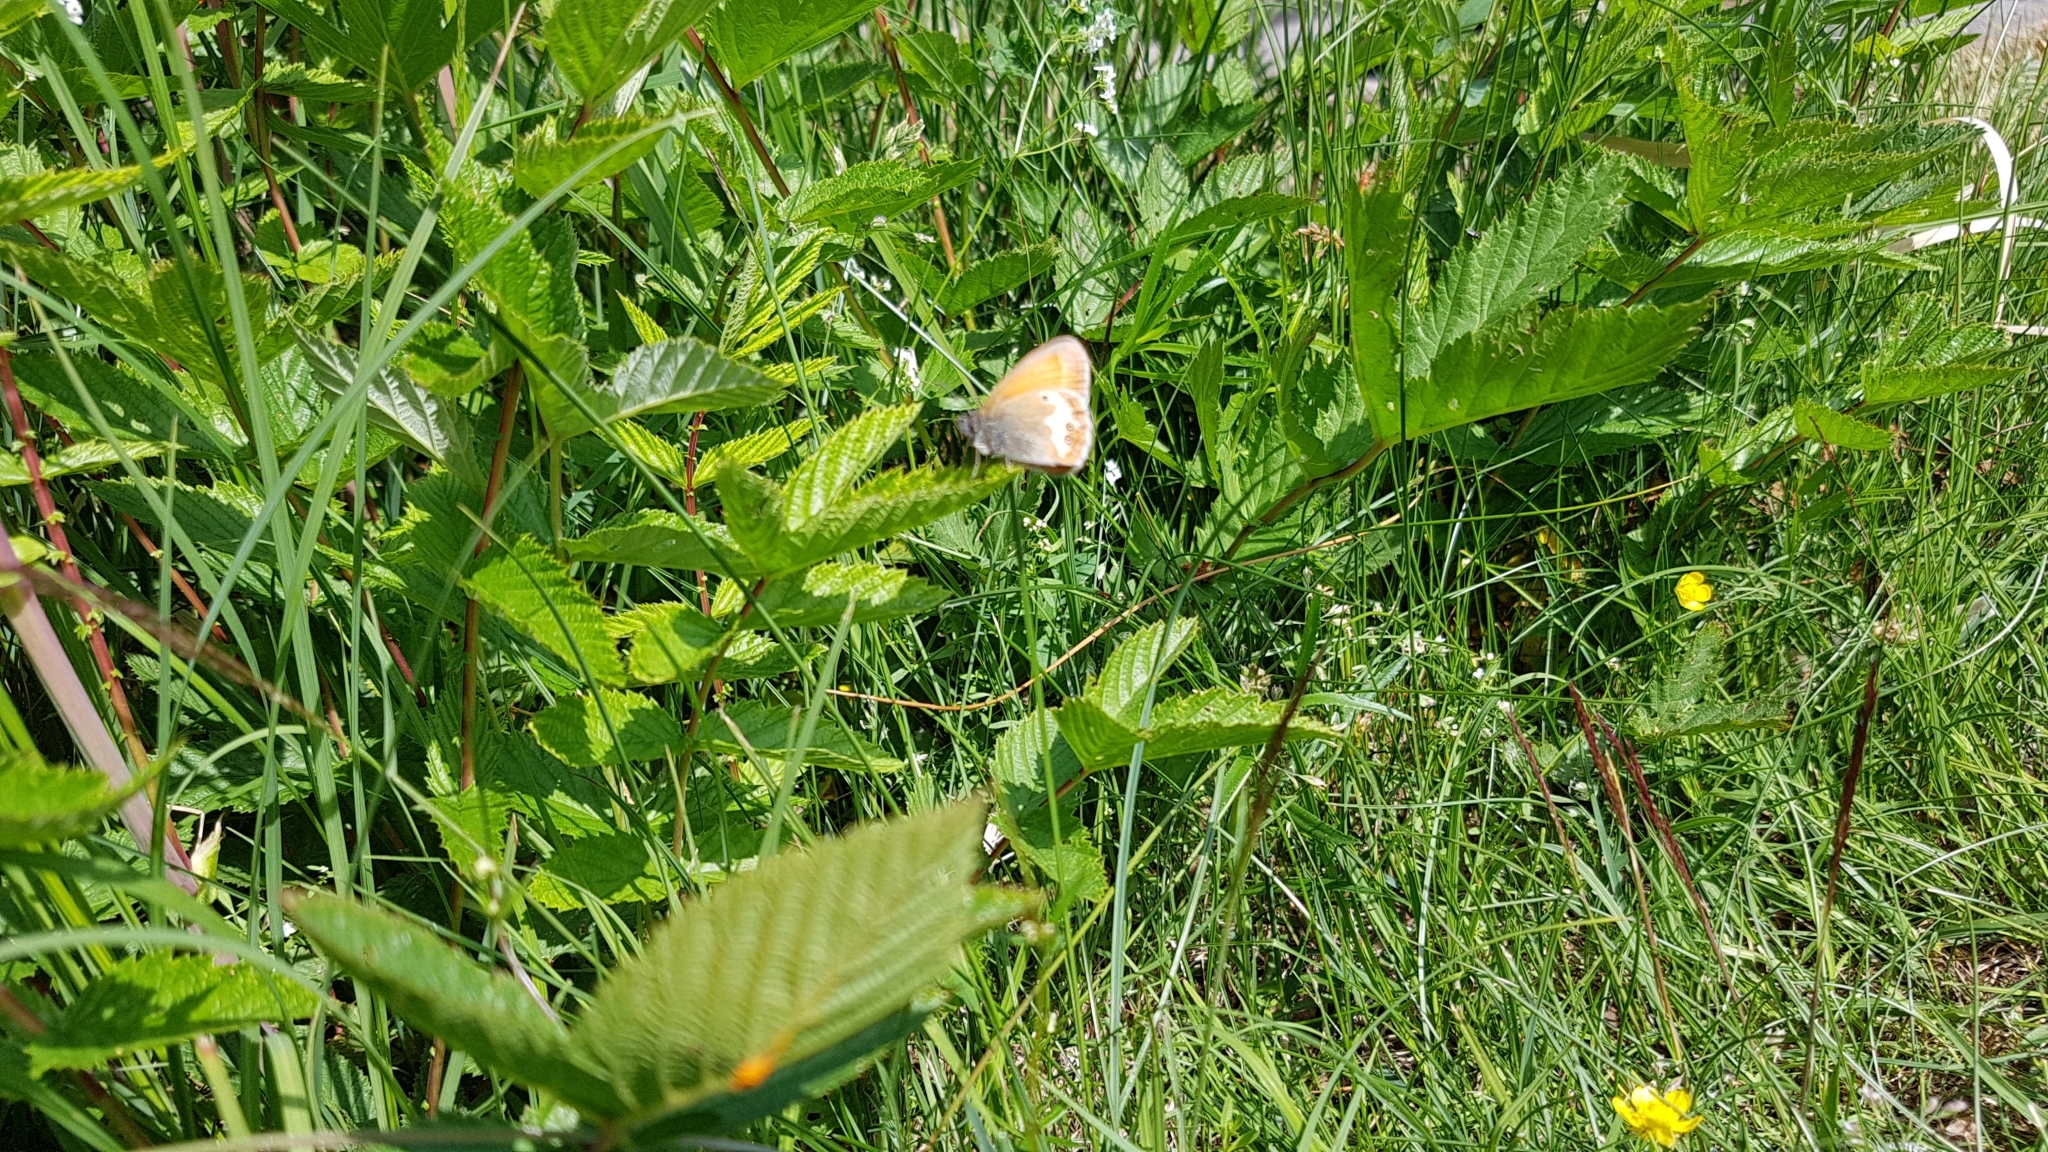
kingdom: Animalia
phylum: Arthropoda
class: Insecta
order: Lepidoptera
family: Nymphalidae
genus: Coenonympha
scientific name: Coenonympha arcania
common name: Pearly heath
